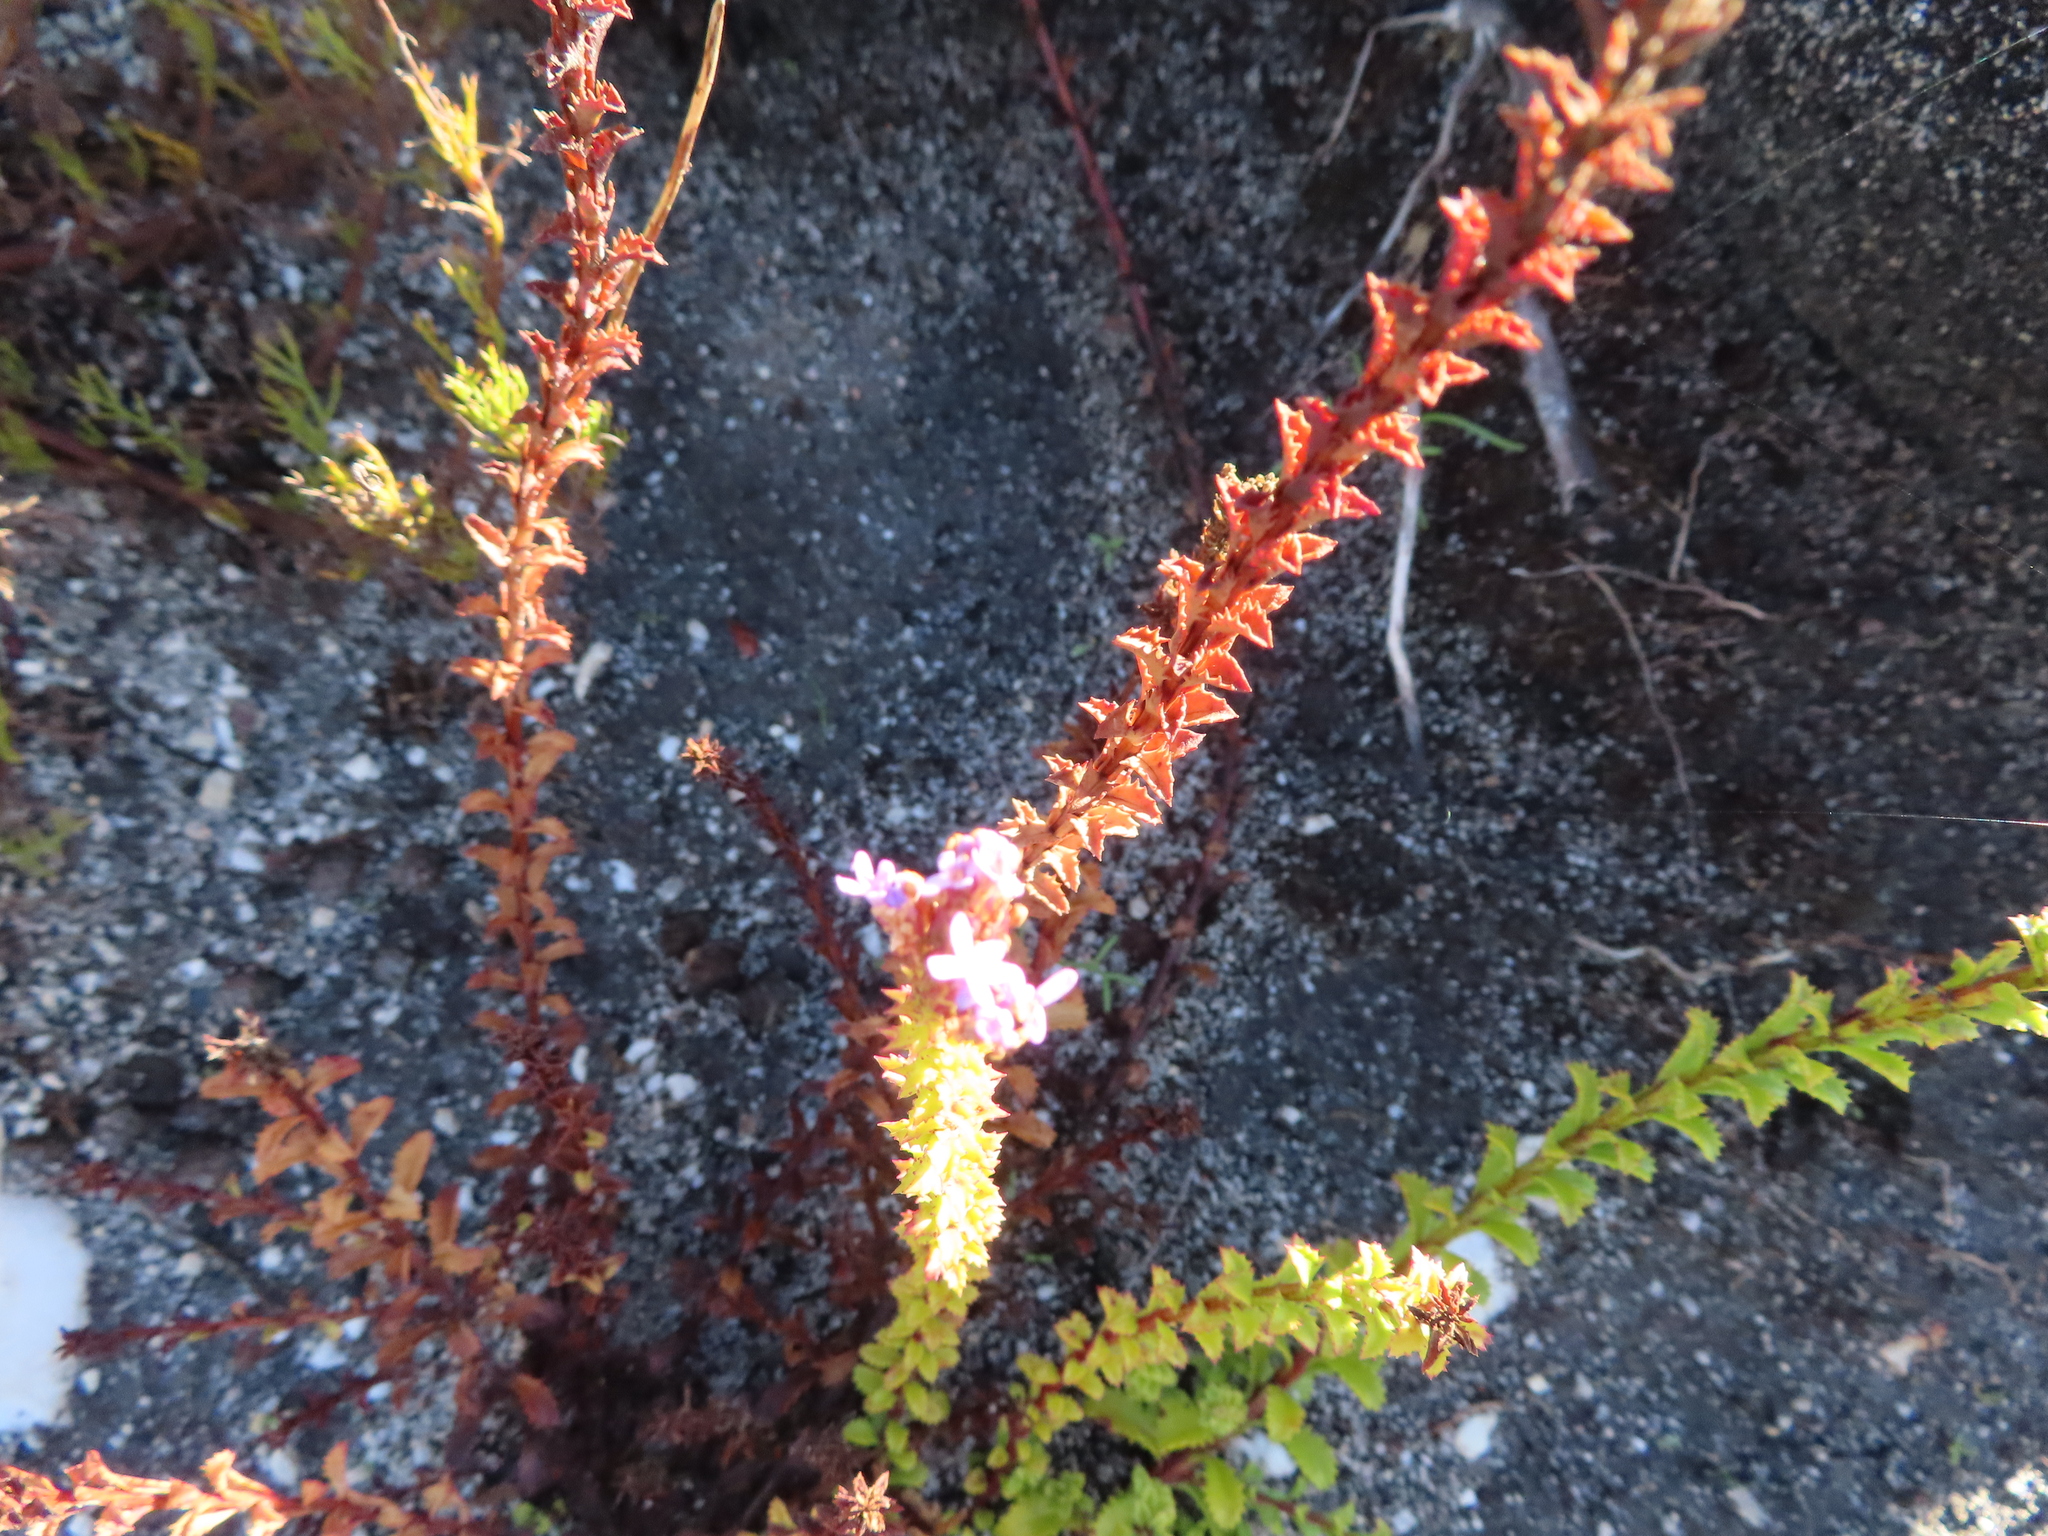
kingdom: Plantae
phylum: Tracheophyta
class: Magnoliopsida
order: Lamiales
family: Scrophulariaceae
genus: Pseudoselago
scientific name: Pseudoselago serrata
